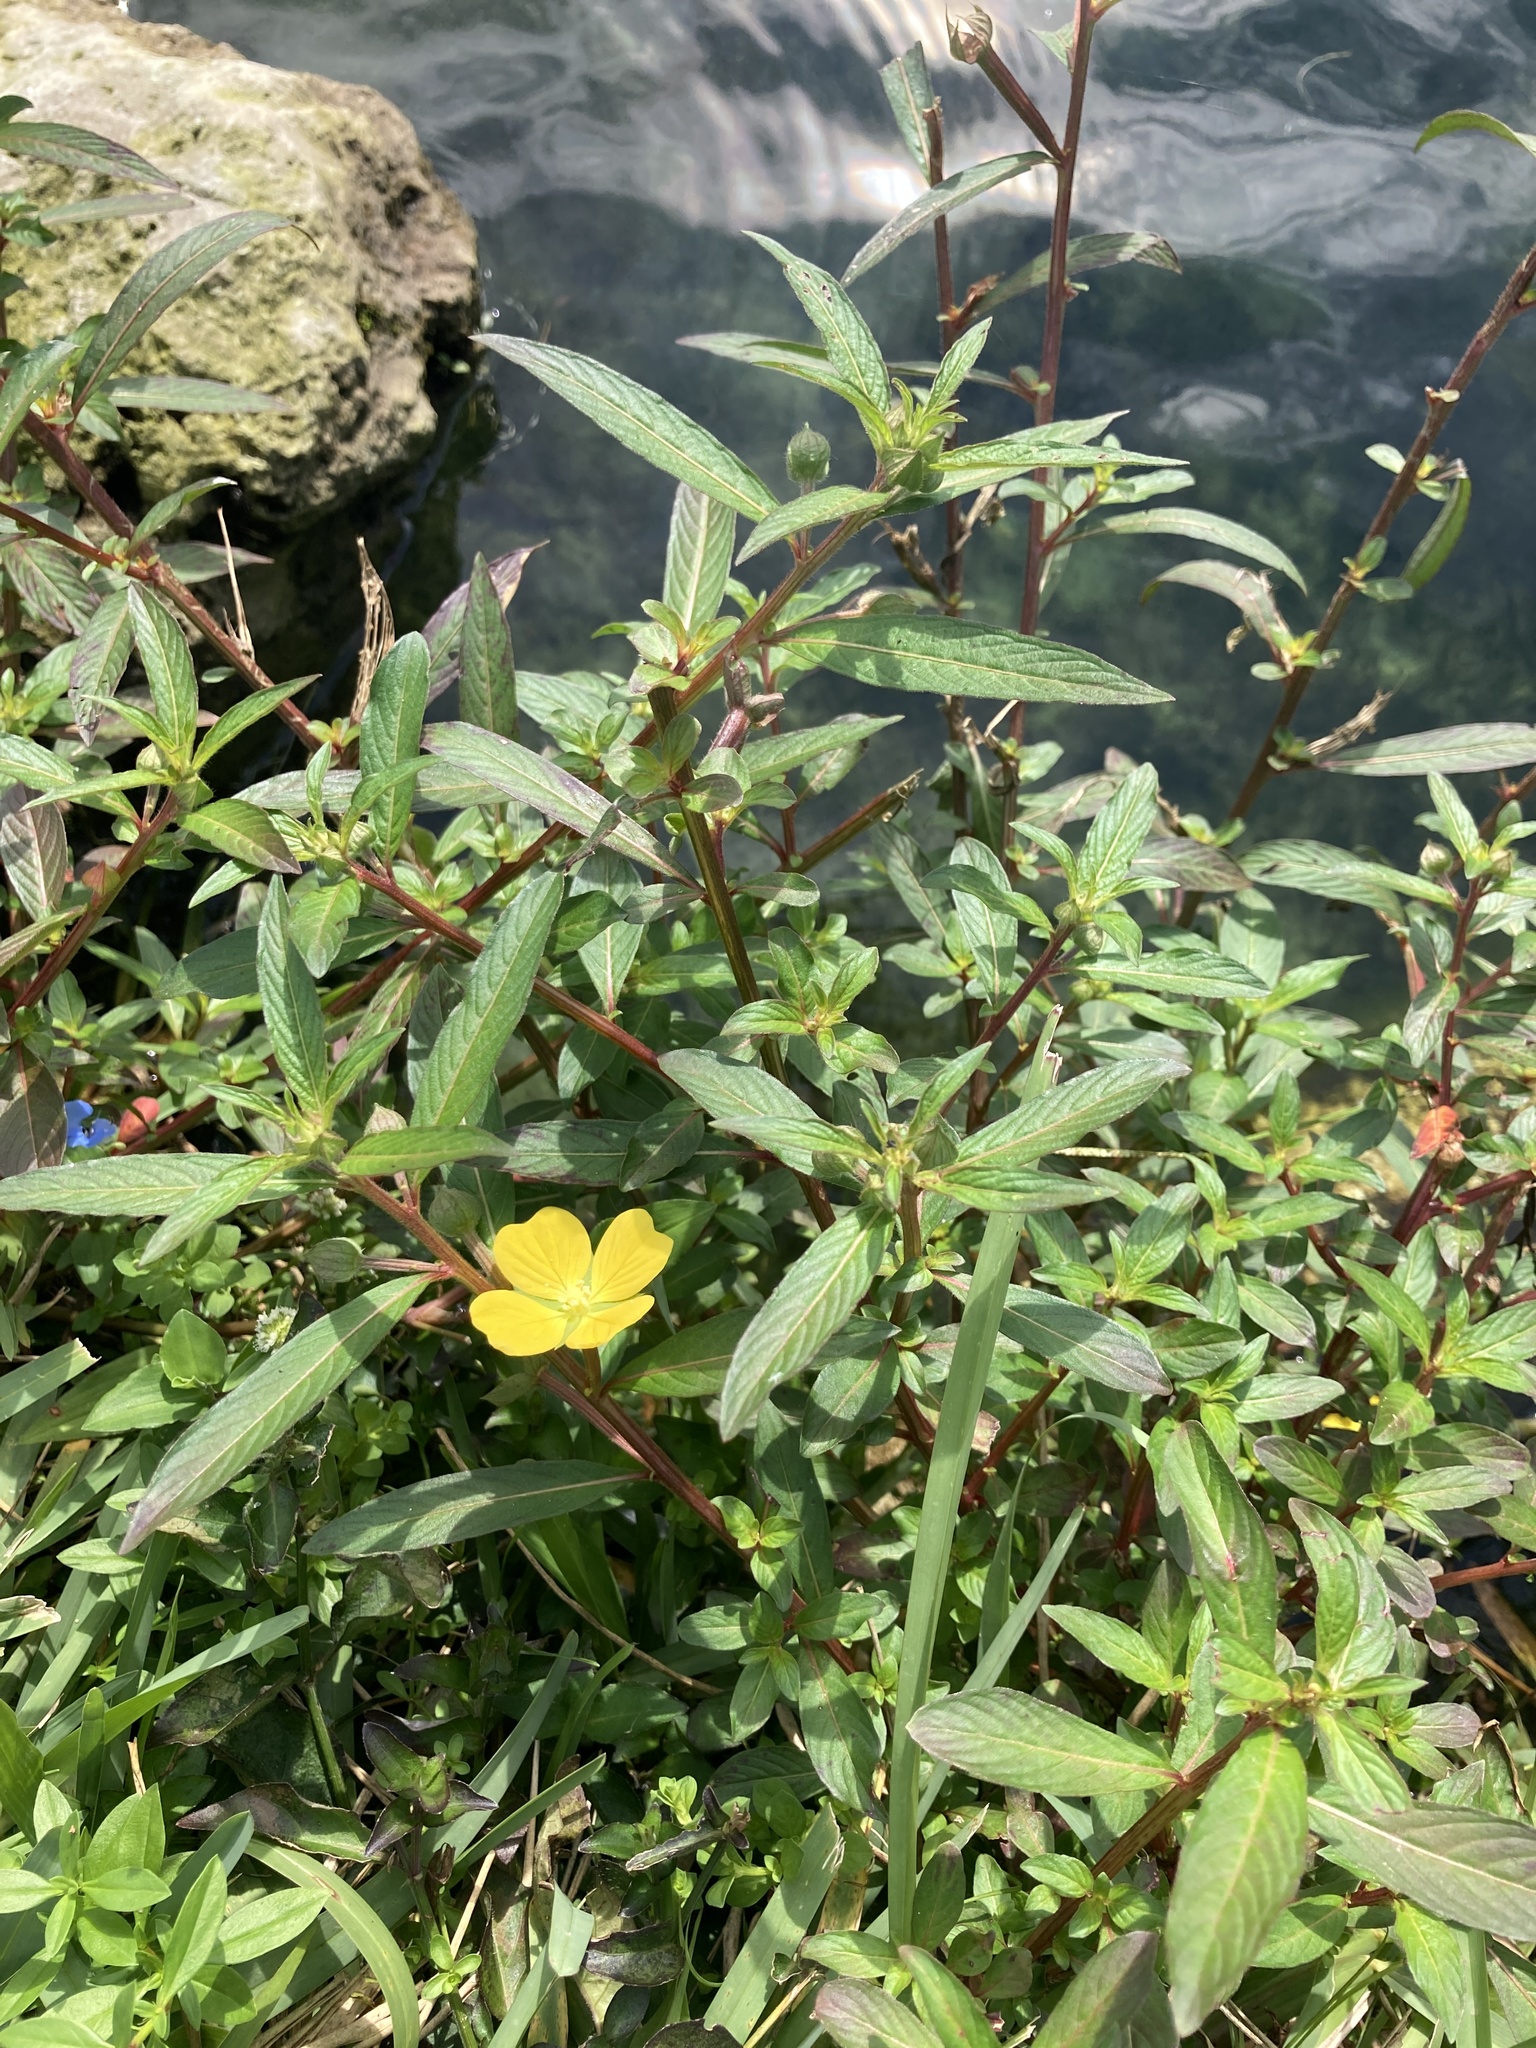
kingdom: Plantae
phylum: Tracheophyta
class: Magnoliopsida
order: Myrtales
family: Onagraceae
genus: Ludwigia
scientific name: Ludwigia octovalvis
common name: Water-primrose
